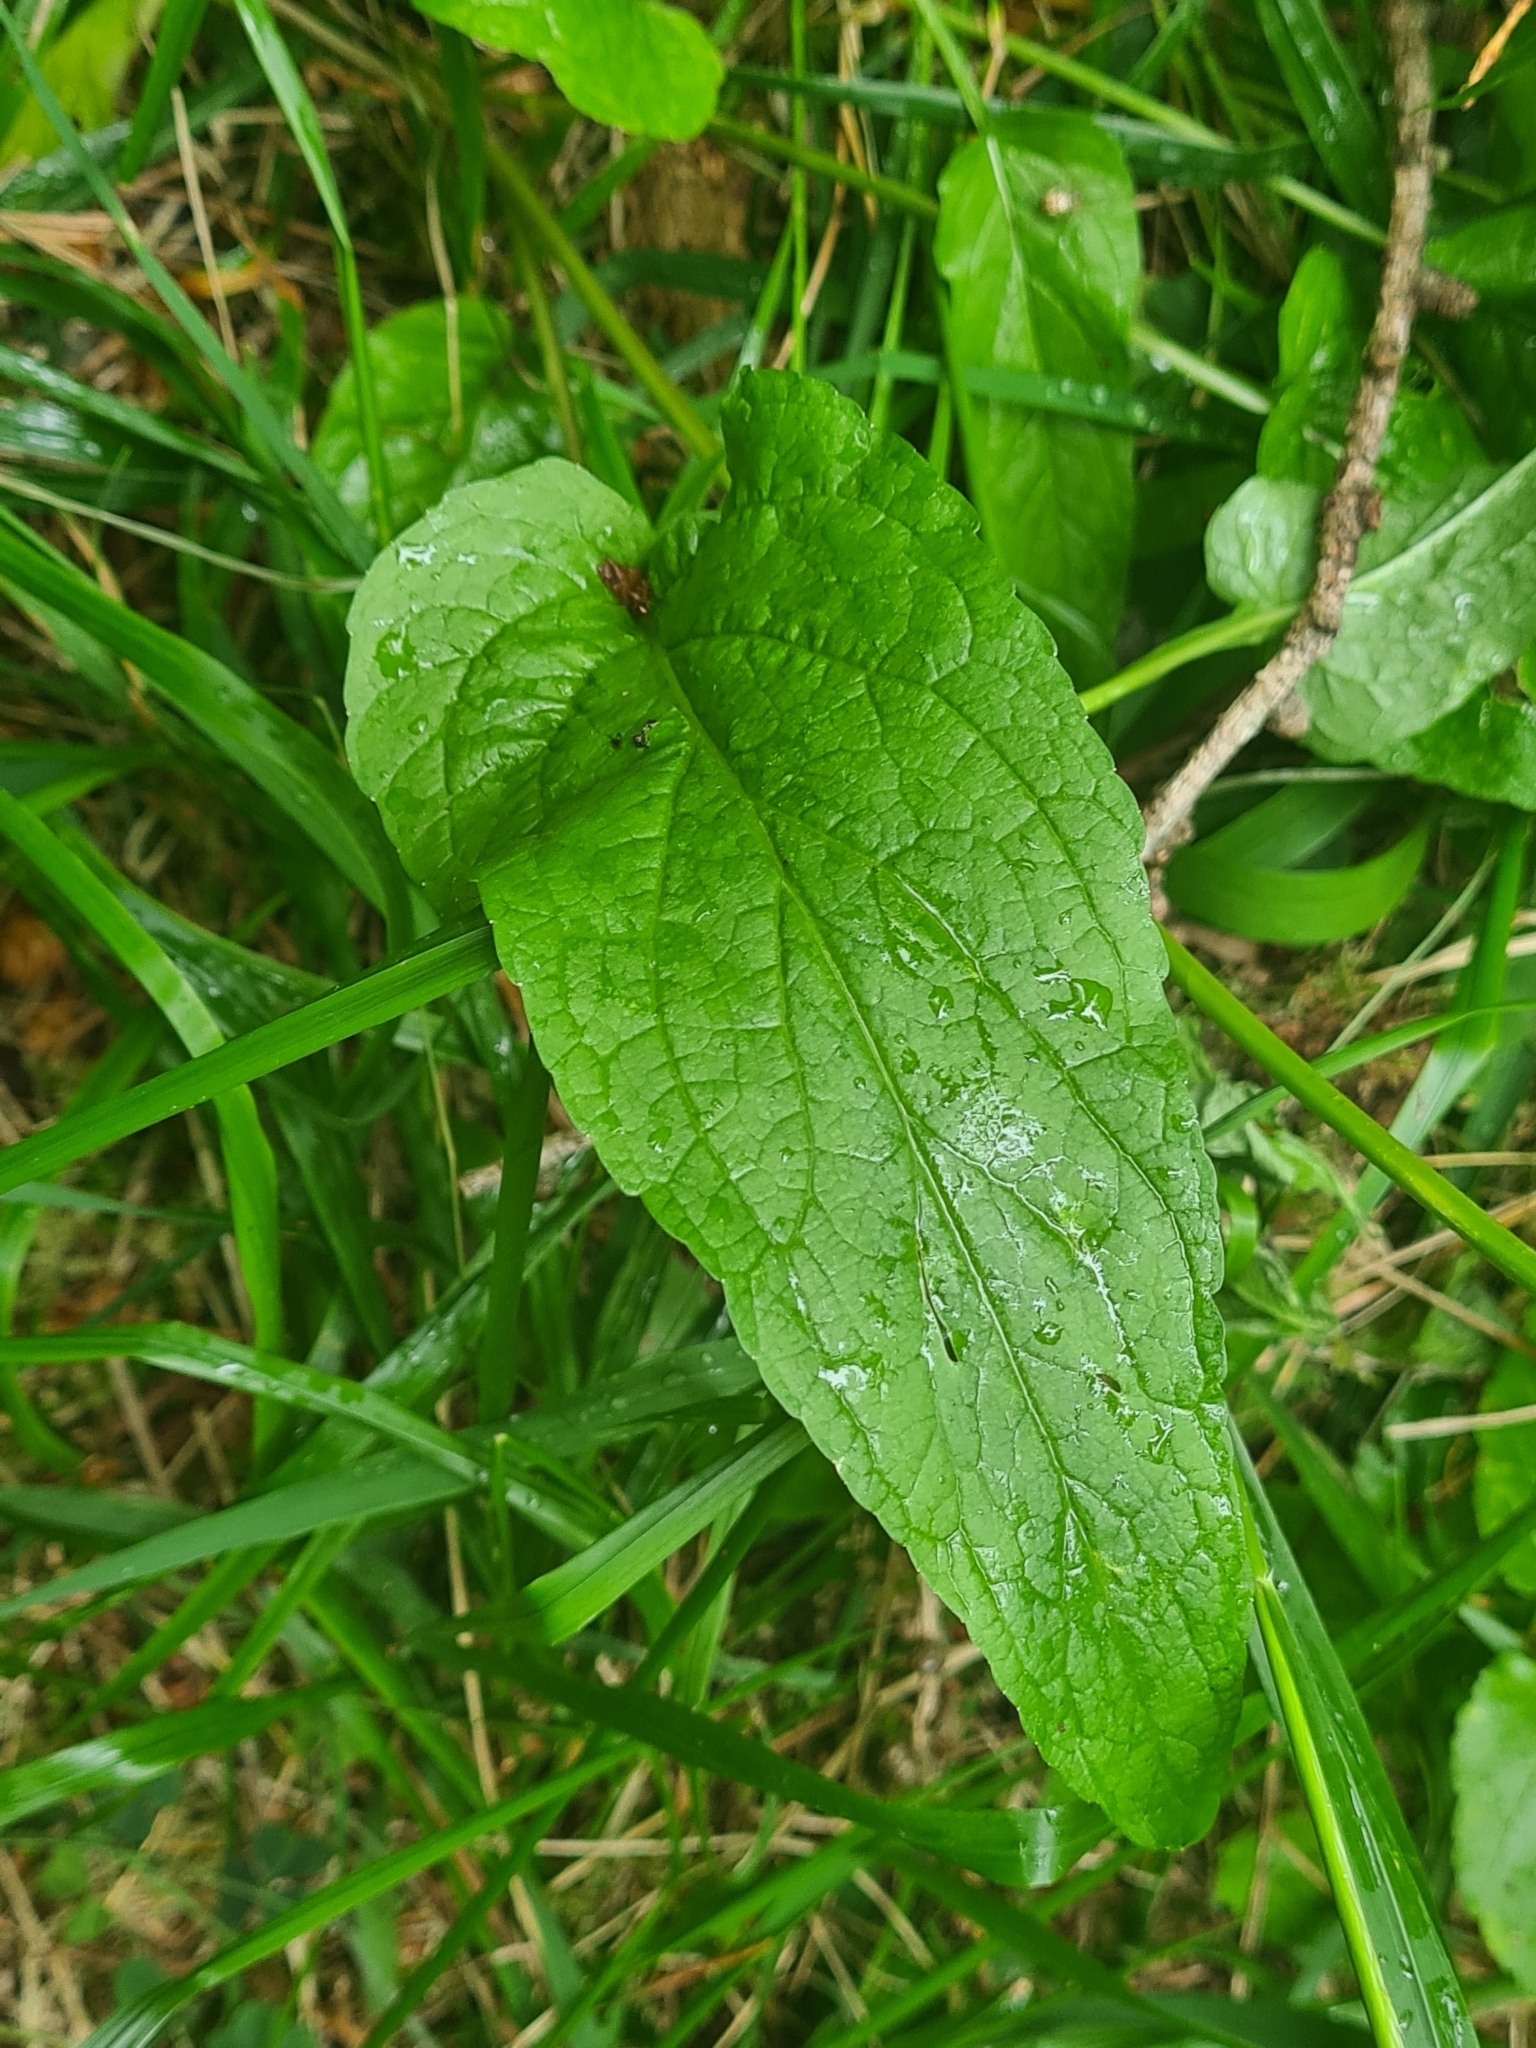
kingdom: Plantae
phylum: Tracheophyta
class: Magnoliopsida
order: Asterales
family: Campanulaceae
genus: Phyteuma
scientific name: Phyteuma persicifolium
